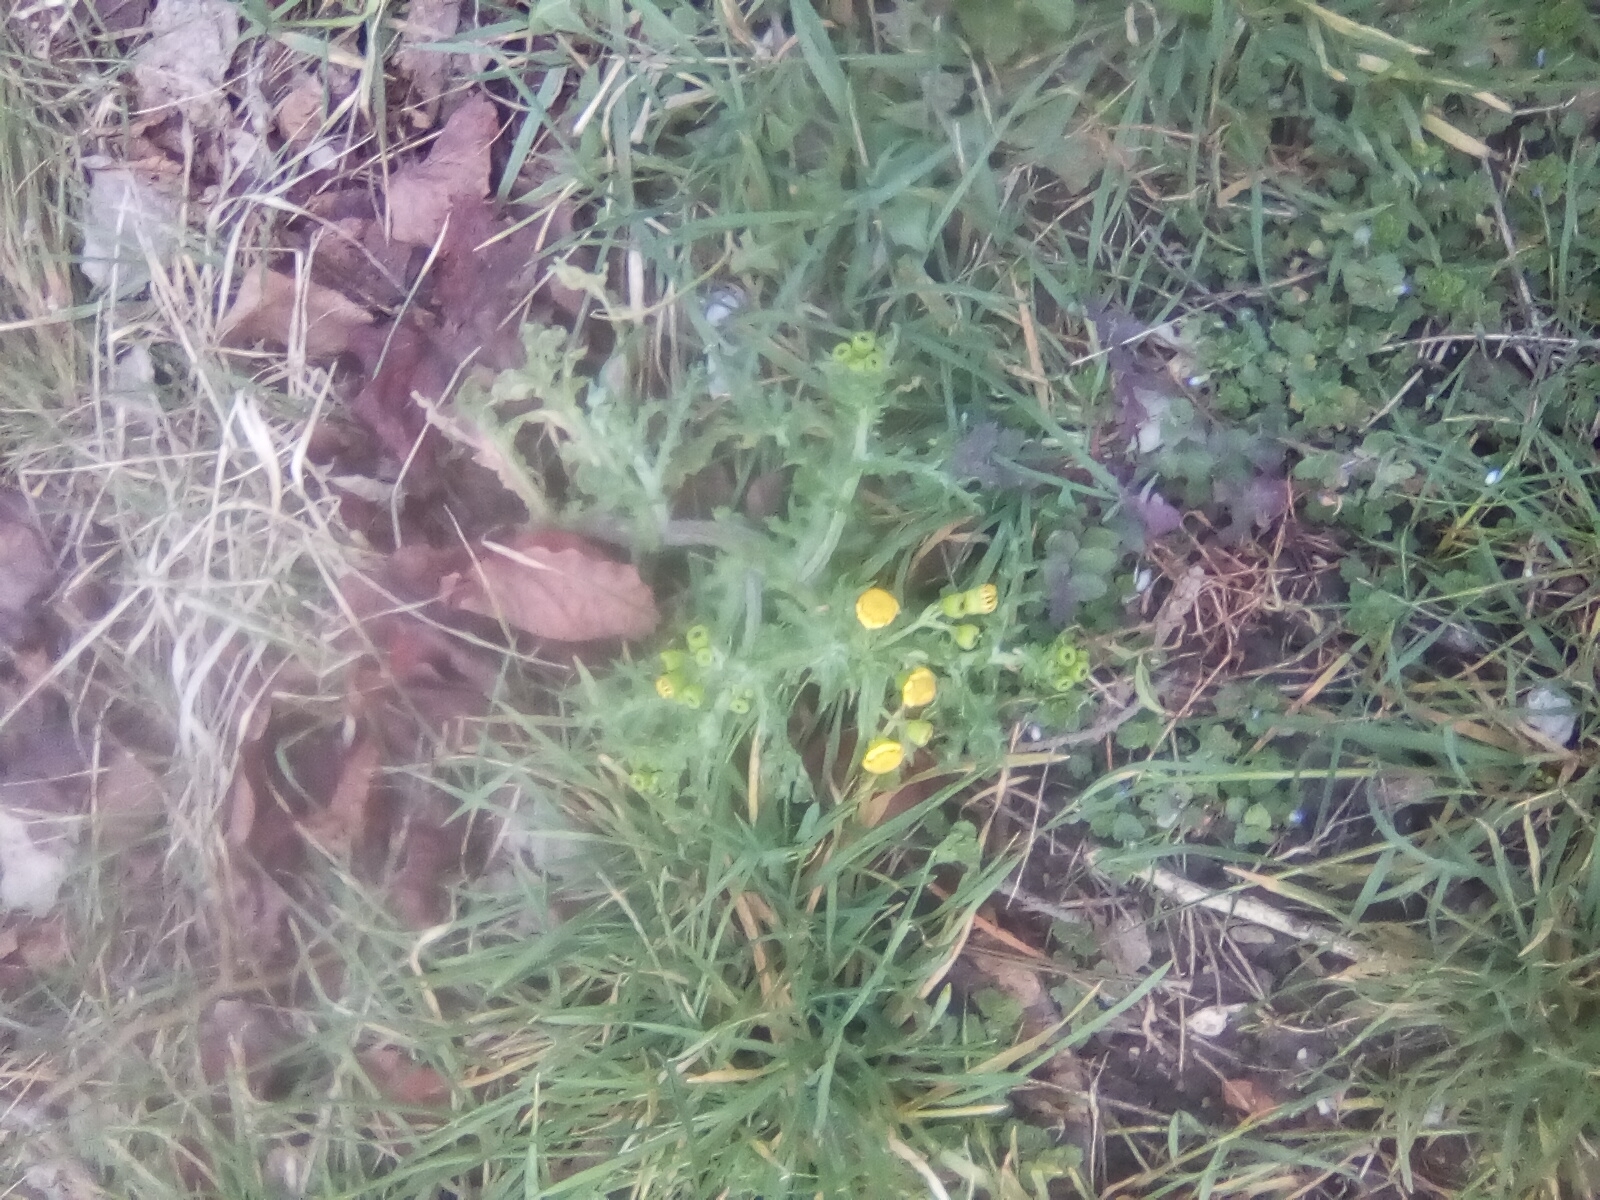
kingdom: Plantae
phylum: Tracheophyta
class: Magnoliopsida
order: Asterales
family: Asteraceae
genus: Senecio
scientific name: Senecio vernalis
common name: Eastern groundsel
